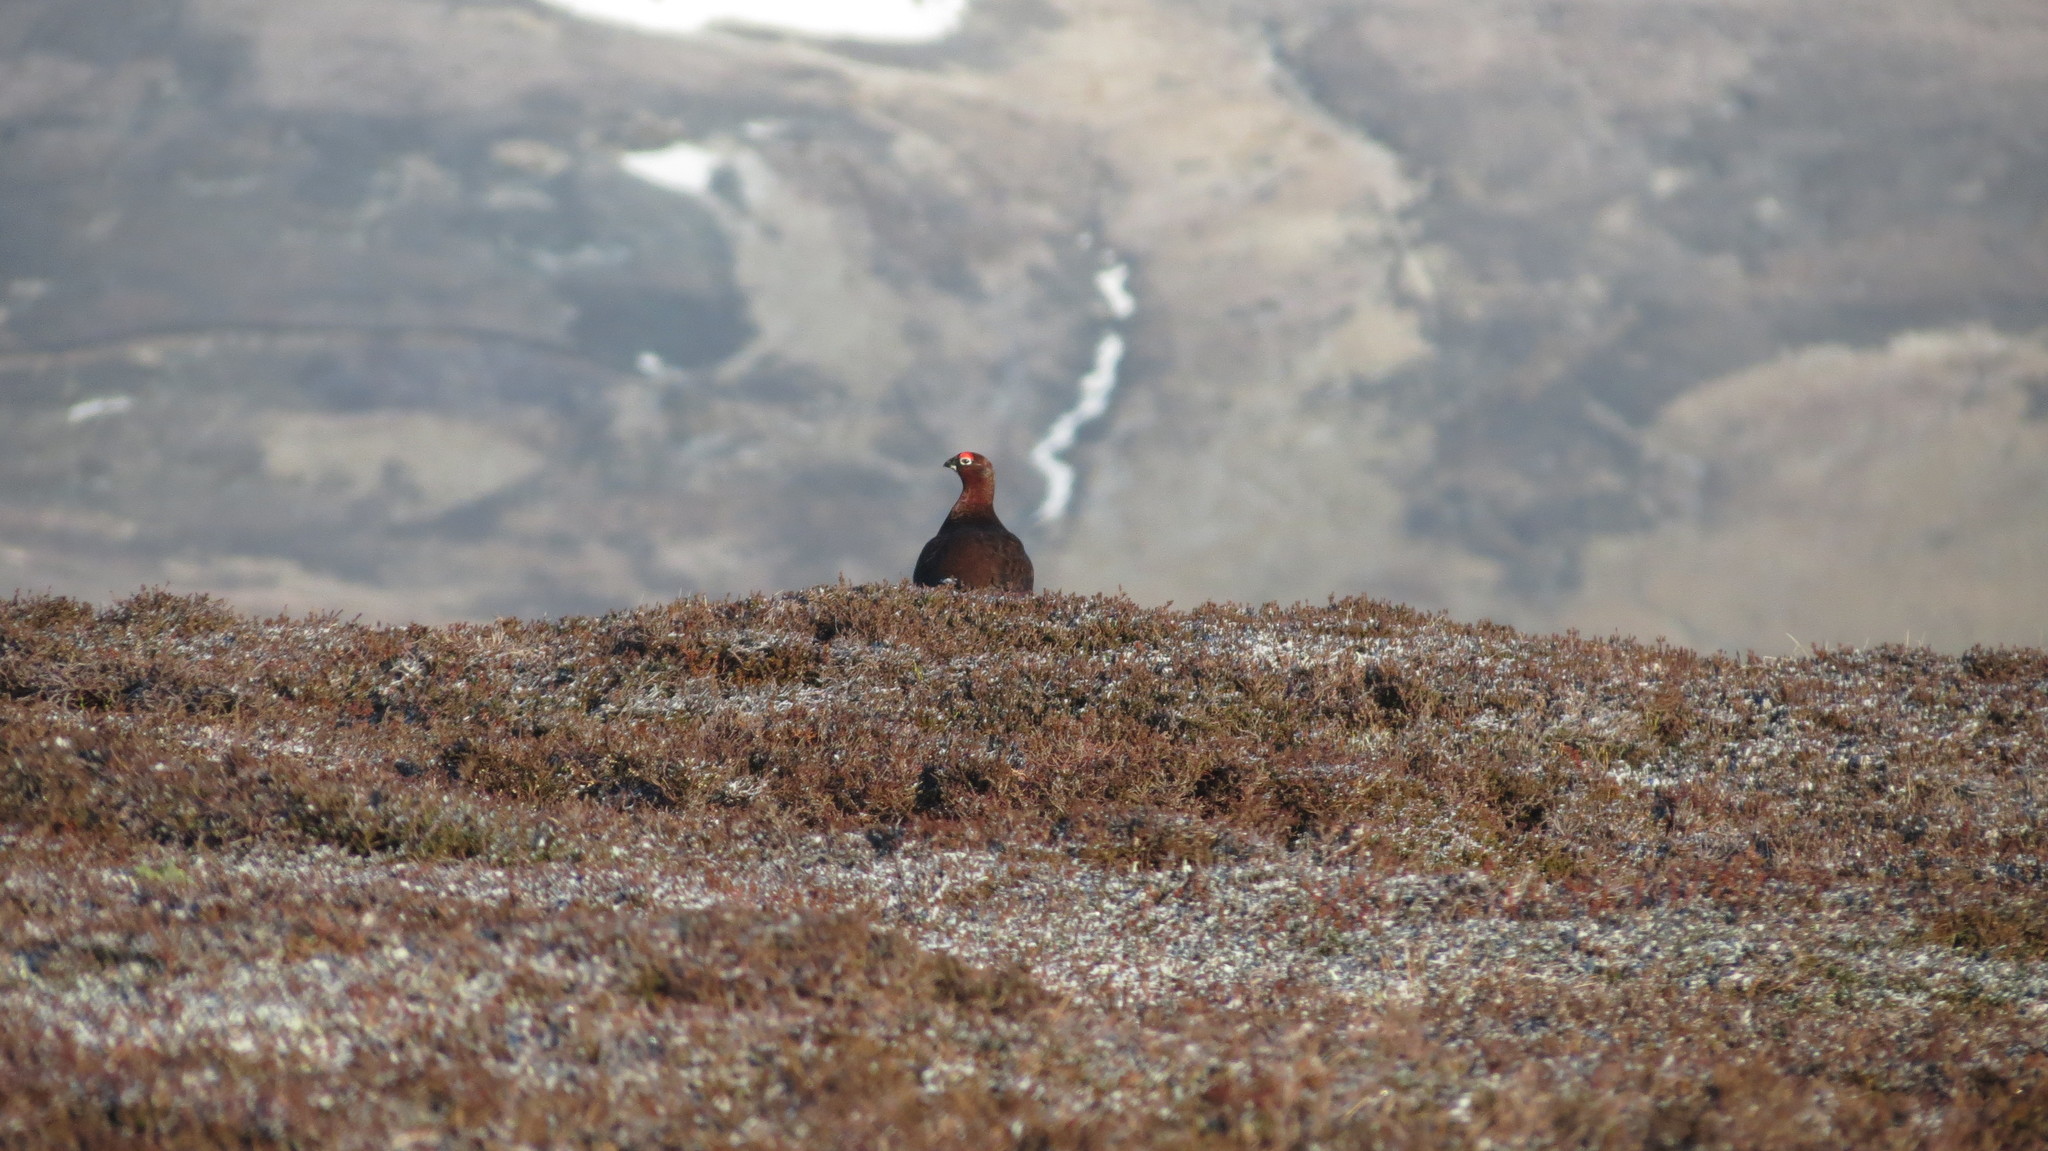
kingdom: Animalia
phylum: Chordata
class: Aves
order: Galliformes
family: Phasianidae
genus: Lagopus
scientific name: Lagopus lagopus
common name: Willow ptarmigan
